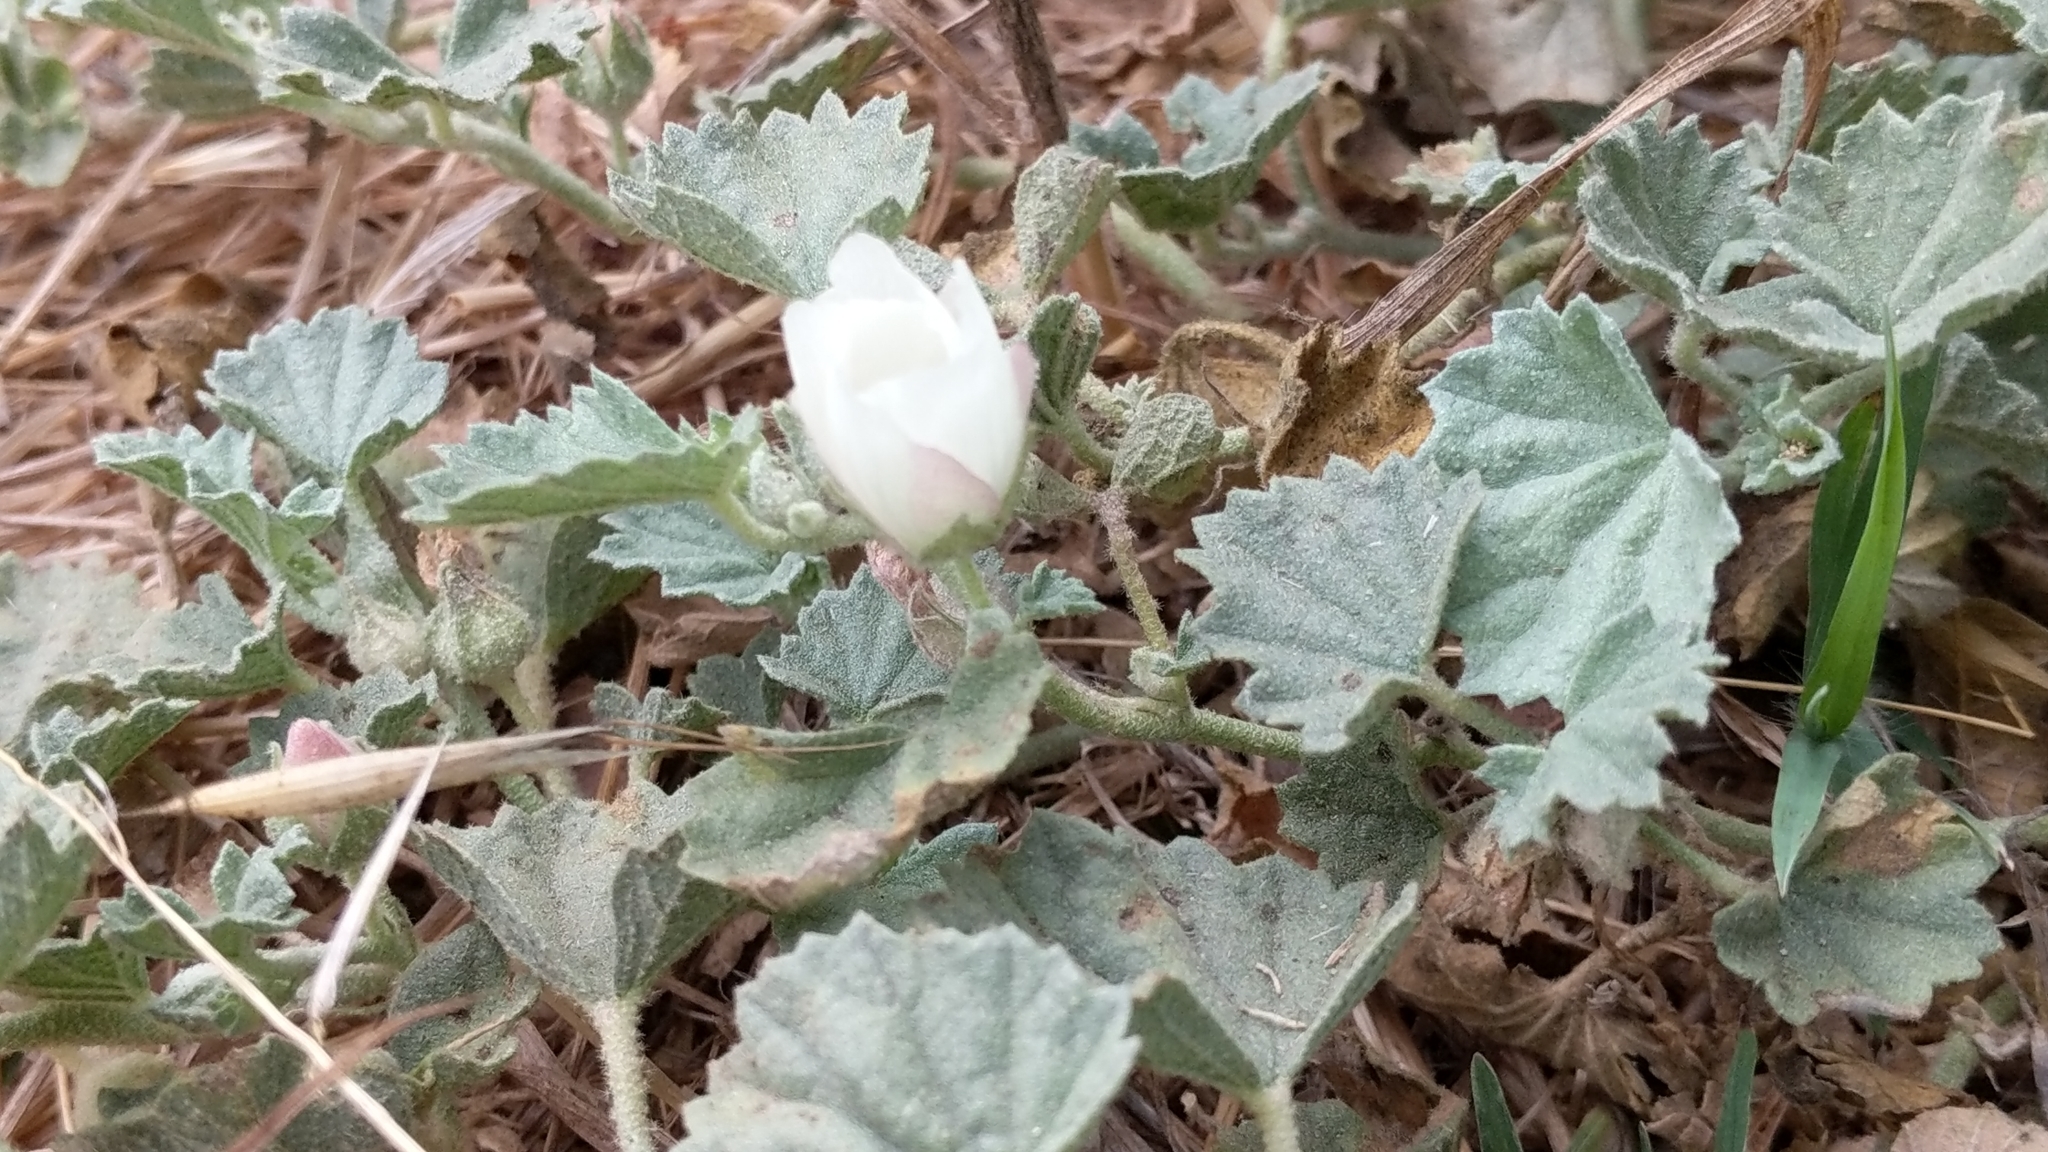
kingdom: Plantae
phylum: Tracheophyta
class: Magnoliopsida
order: Malvales
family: Malvaceae
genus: Malvella
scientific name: Malvella leprosa
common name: Alkali-mallow
